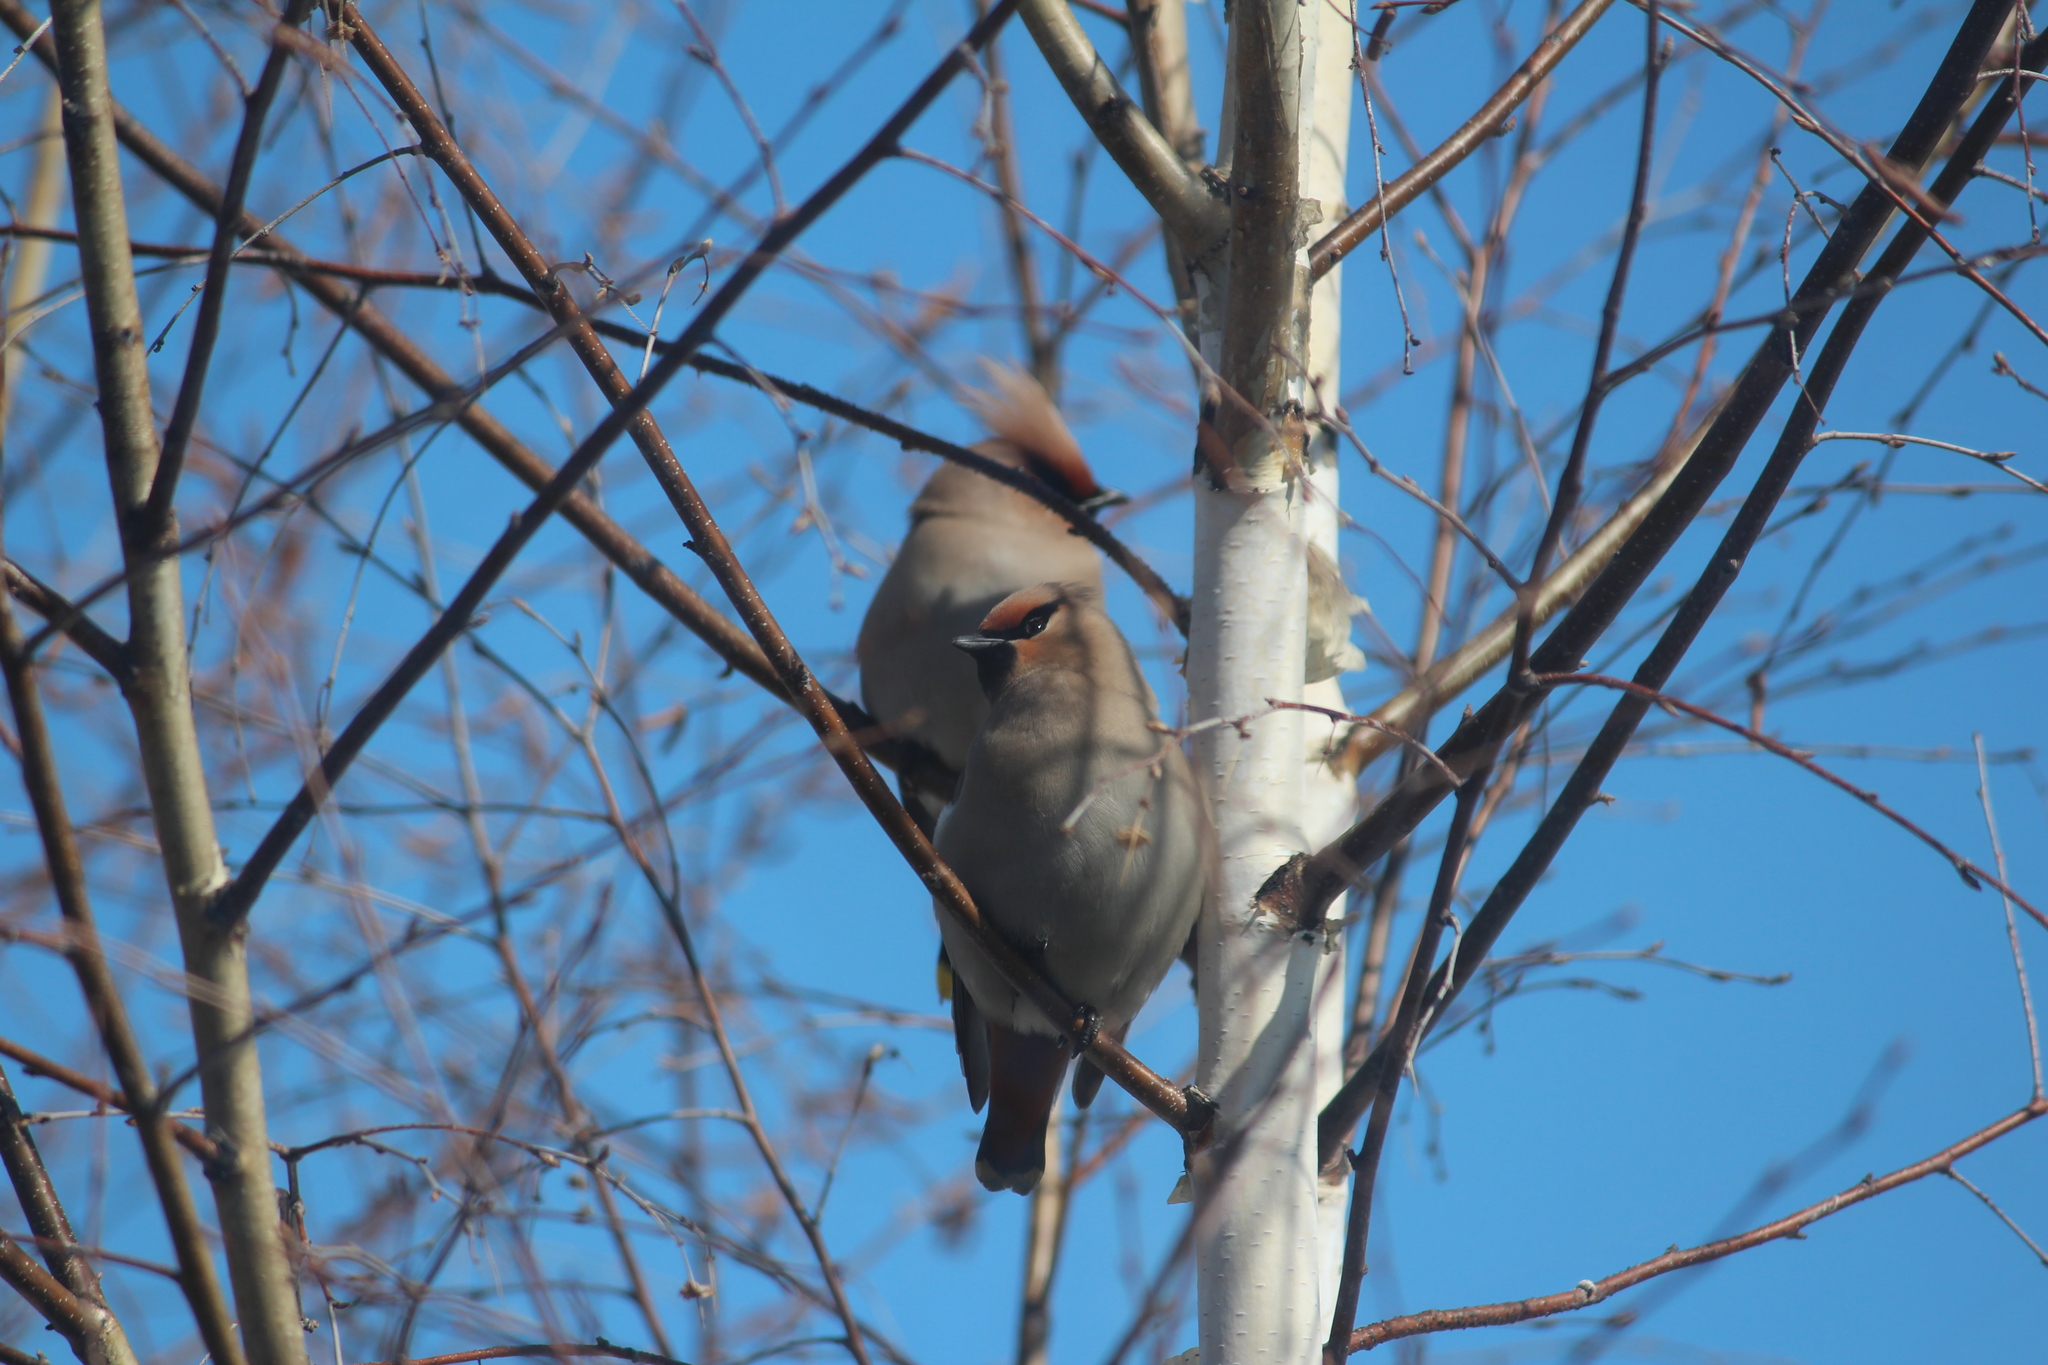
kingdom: Animalia
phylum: Chordata
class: Aves
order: Passeriformes
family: Bombycillidae
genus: Bombycilla
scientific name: Bombycilla garrulus
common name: Bohemian waxwing
